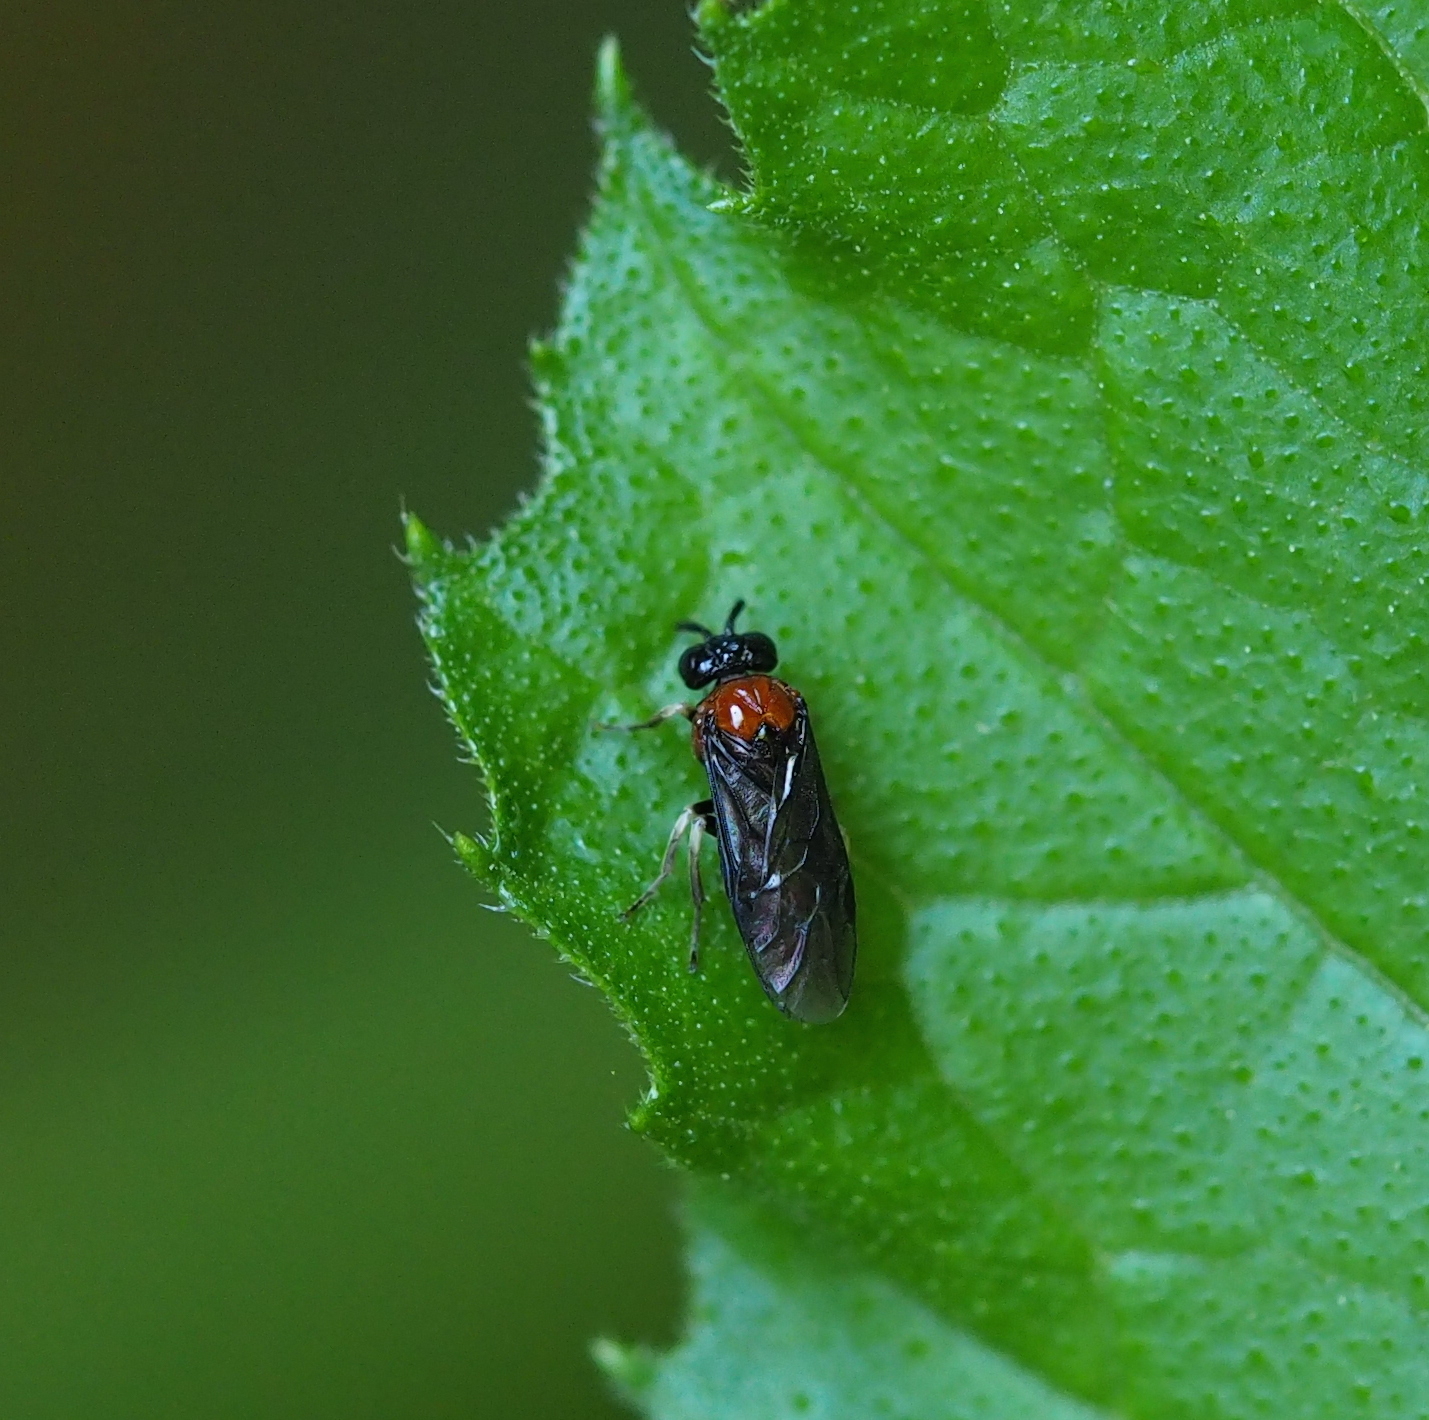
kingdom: Animalia
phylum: Arthropoda
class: Insecta
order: Hymenoptera
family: Tenthredinidae
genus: Eutomostethus
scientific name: Eutomostethus ephippium
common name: Tenthredid wasp
